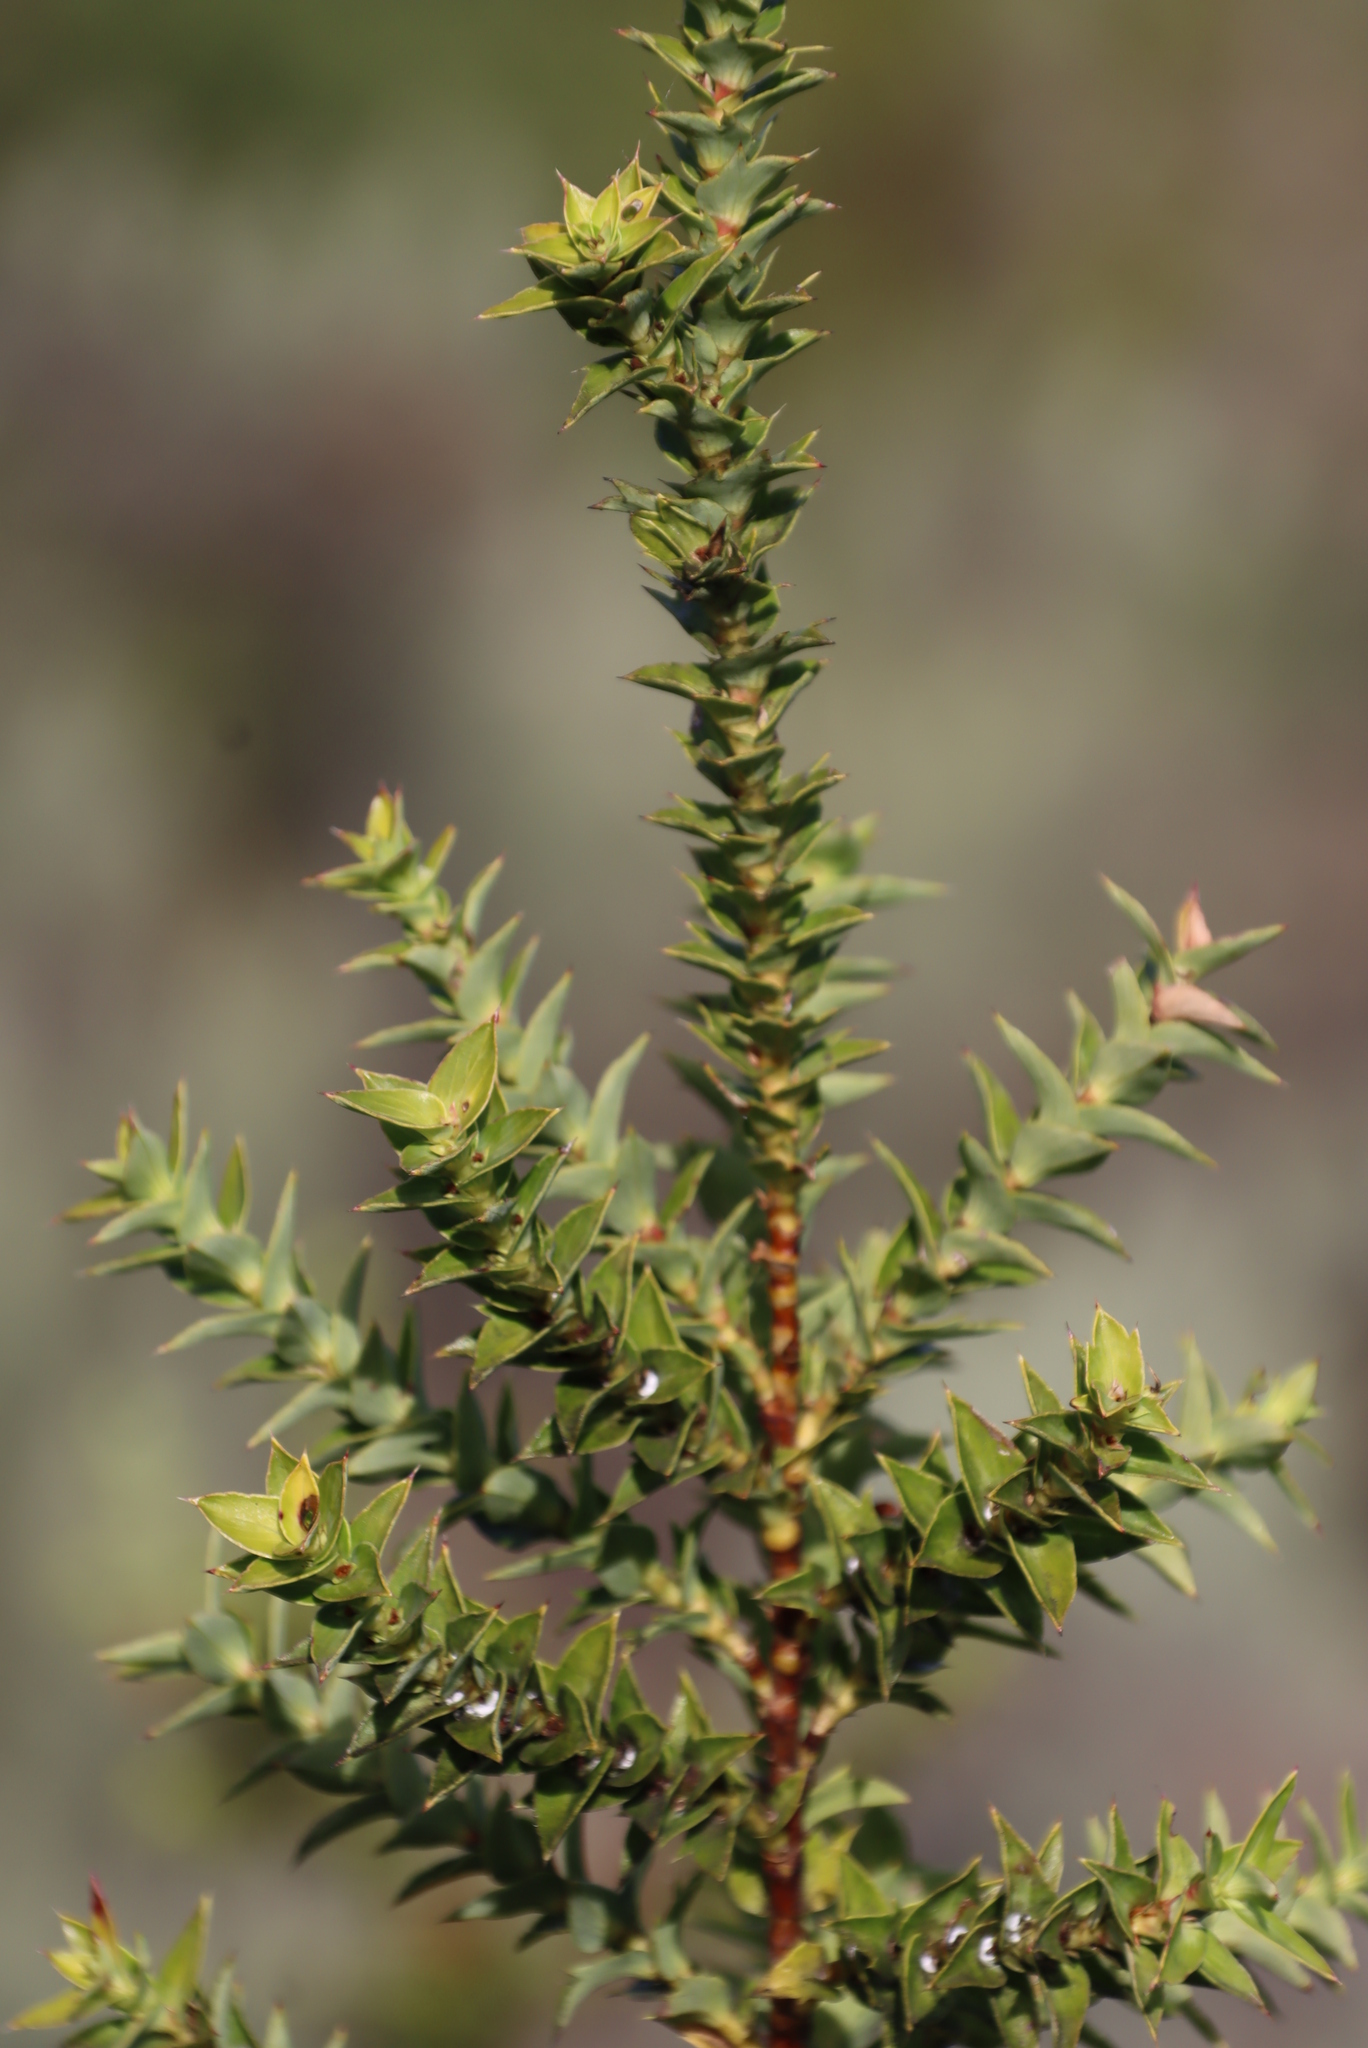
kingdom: Plantae
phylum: Tracheophyta
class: Magnoliopsida
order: Rosales
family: Rosaceae
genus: Cliffortia
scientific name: Cliffortia ilicifolia
